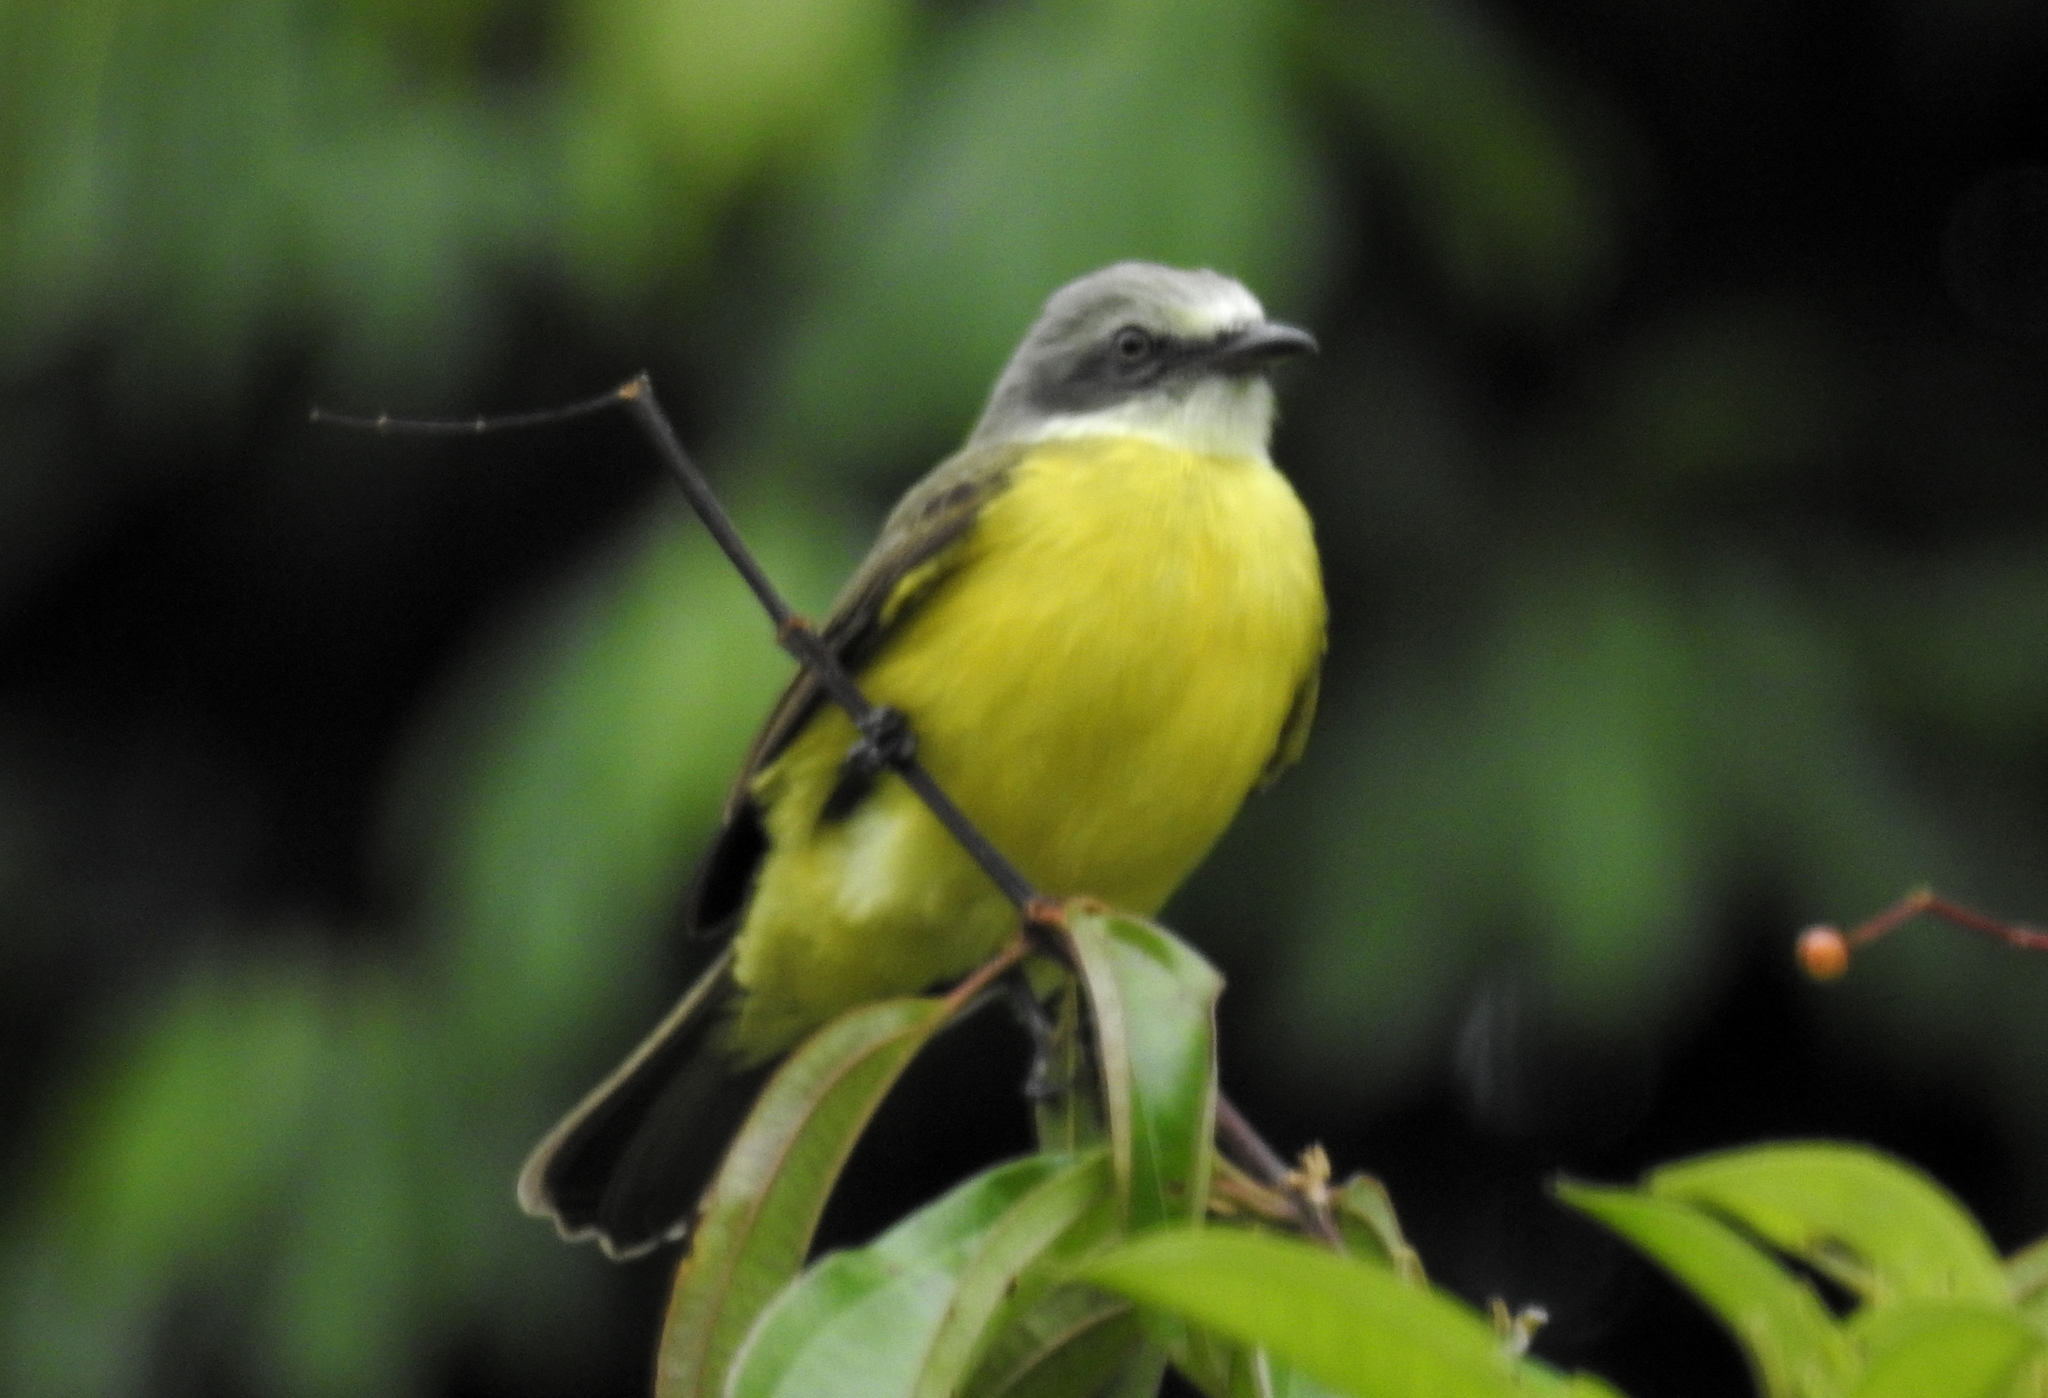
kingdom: Animalia
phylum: Chordata
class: Aves
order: Passeriformes
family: Tyrannidae
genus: Myiozetetes
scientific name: Myiozetetes granadensis
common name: Gray-capped flycatcher
